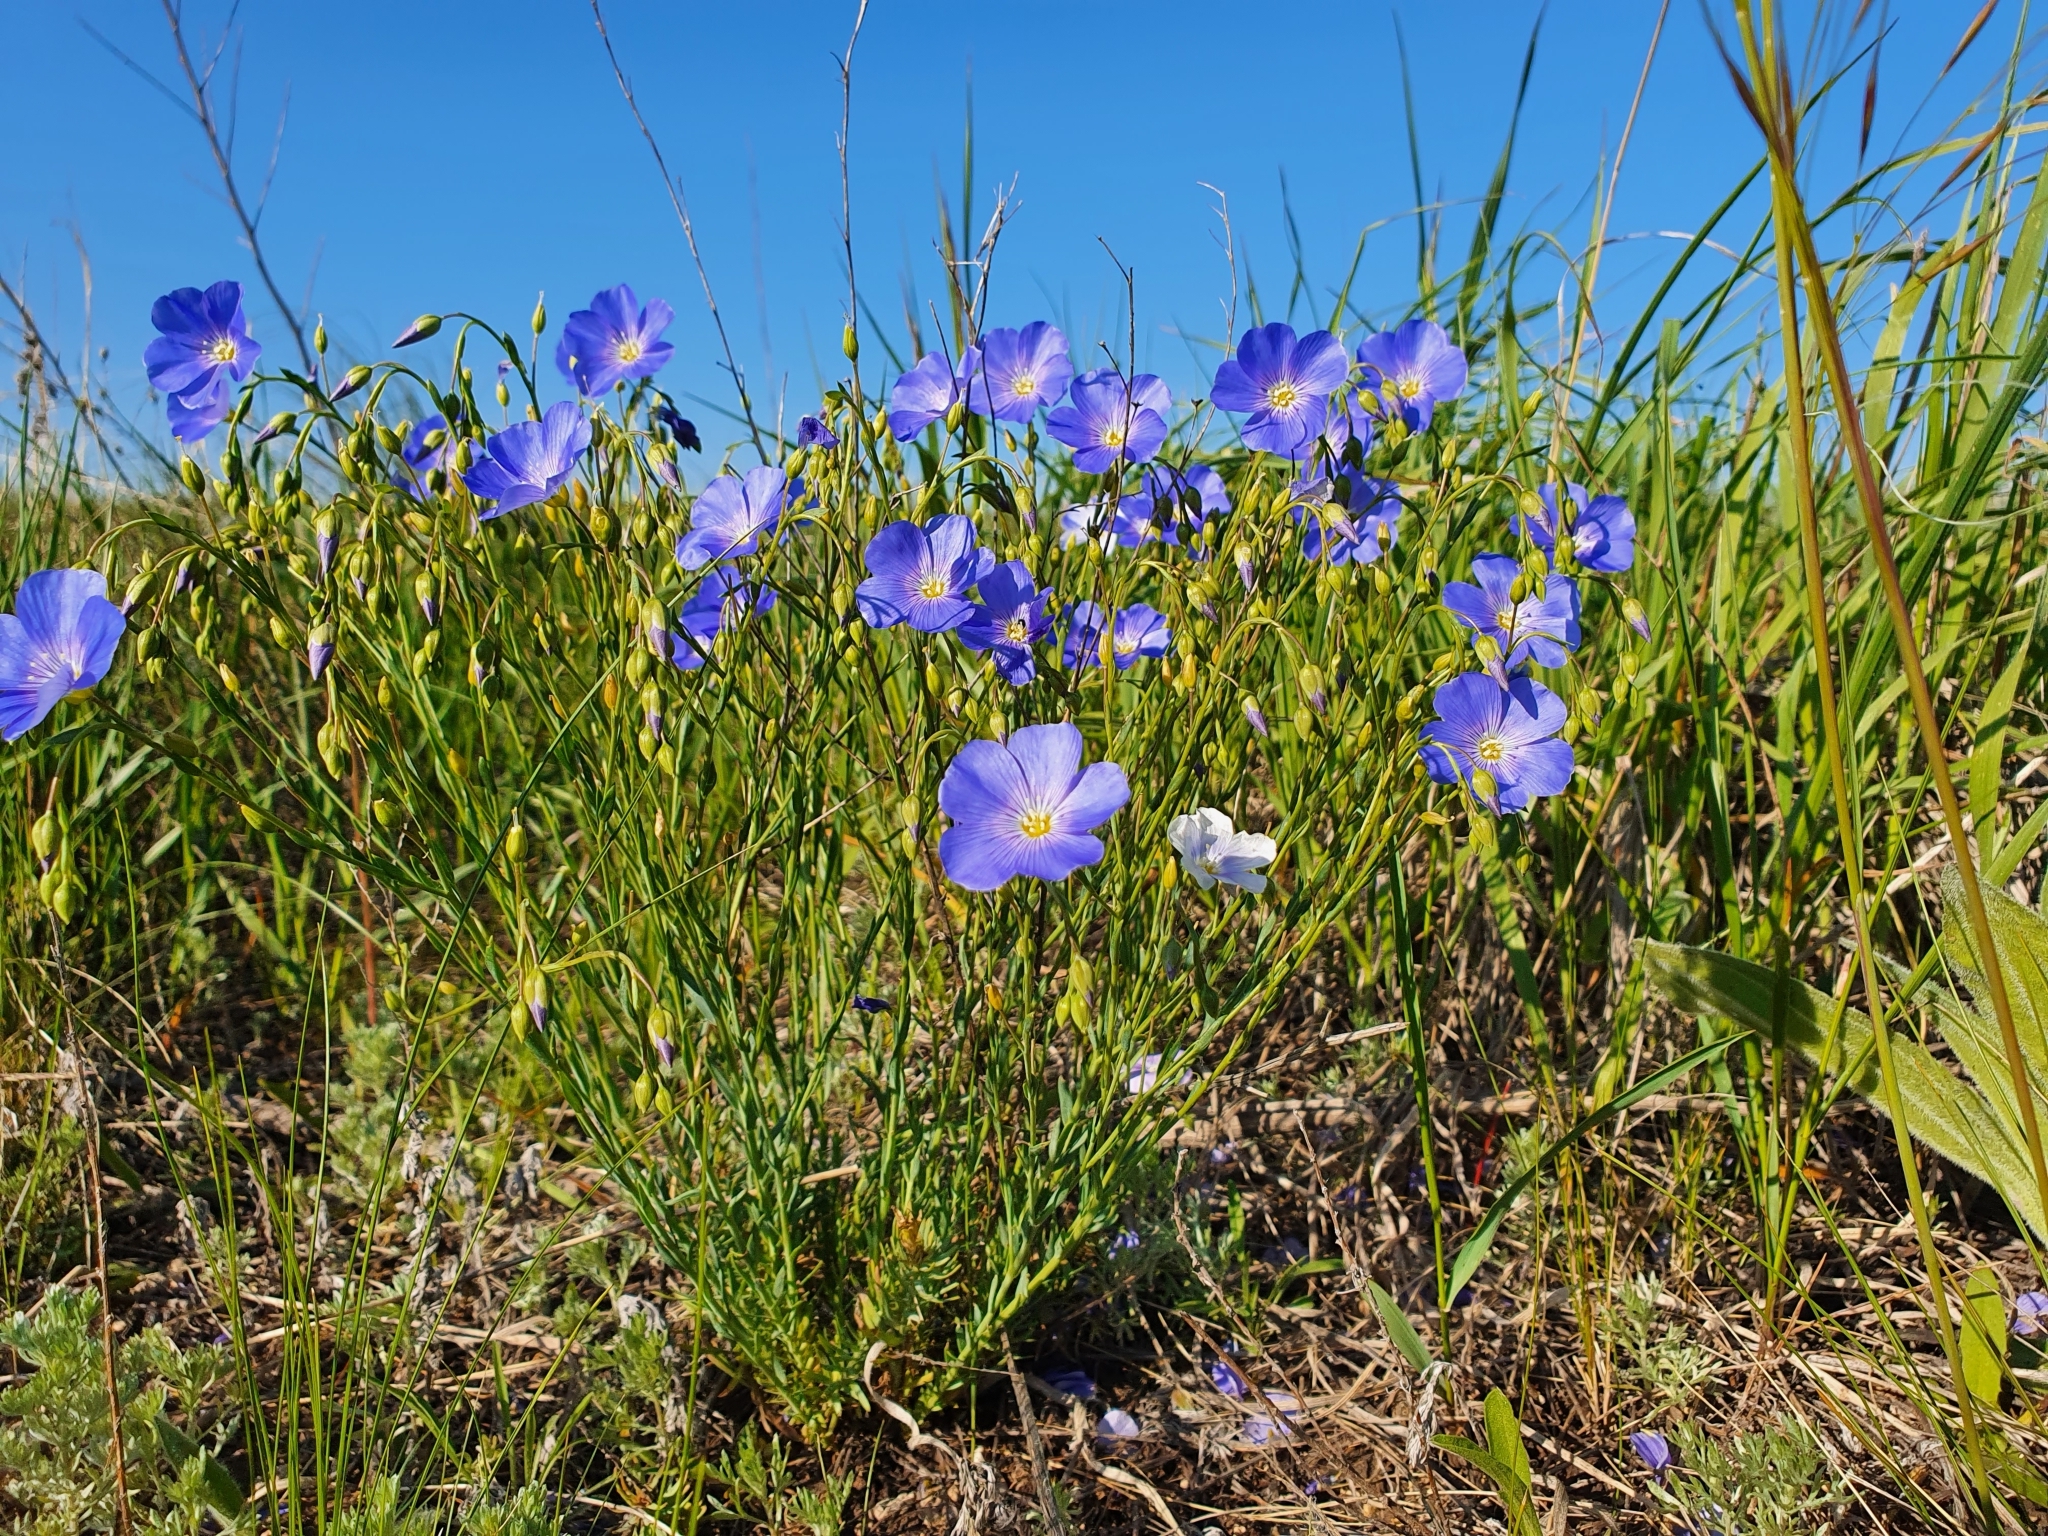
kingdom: Plantae
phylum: Tracheophyta
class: Magnoliopsida
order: Malpighiales
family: Linaceae
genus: Linum
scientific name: Linum perenne
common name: Blue flax
